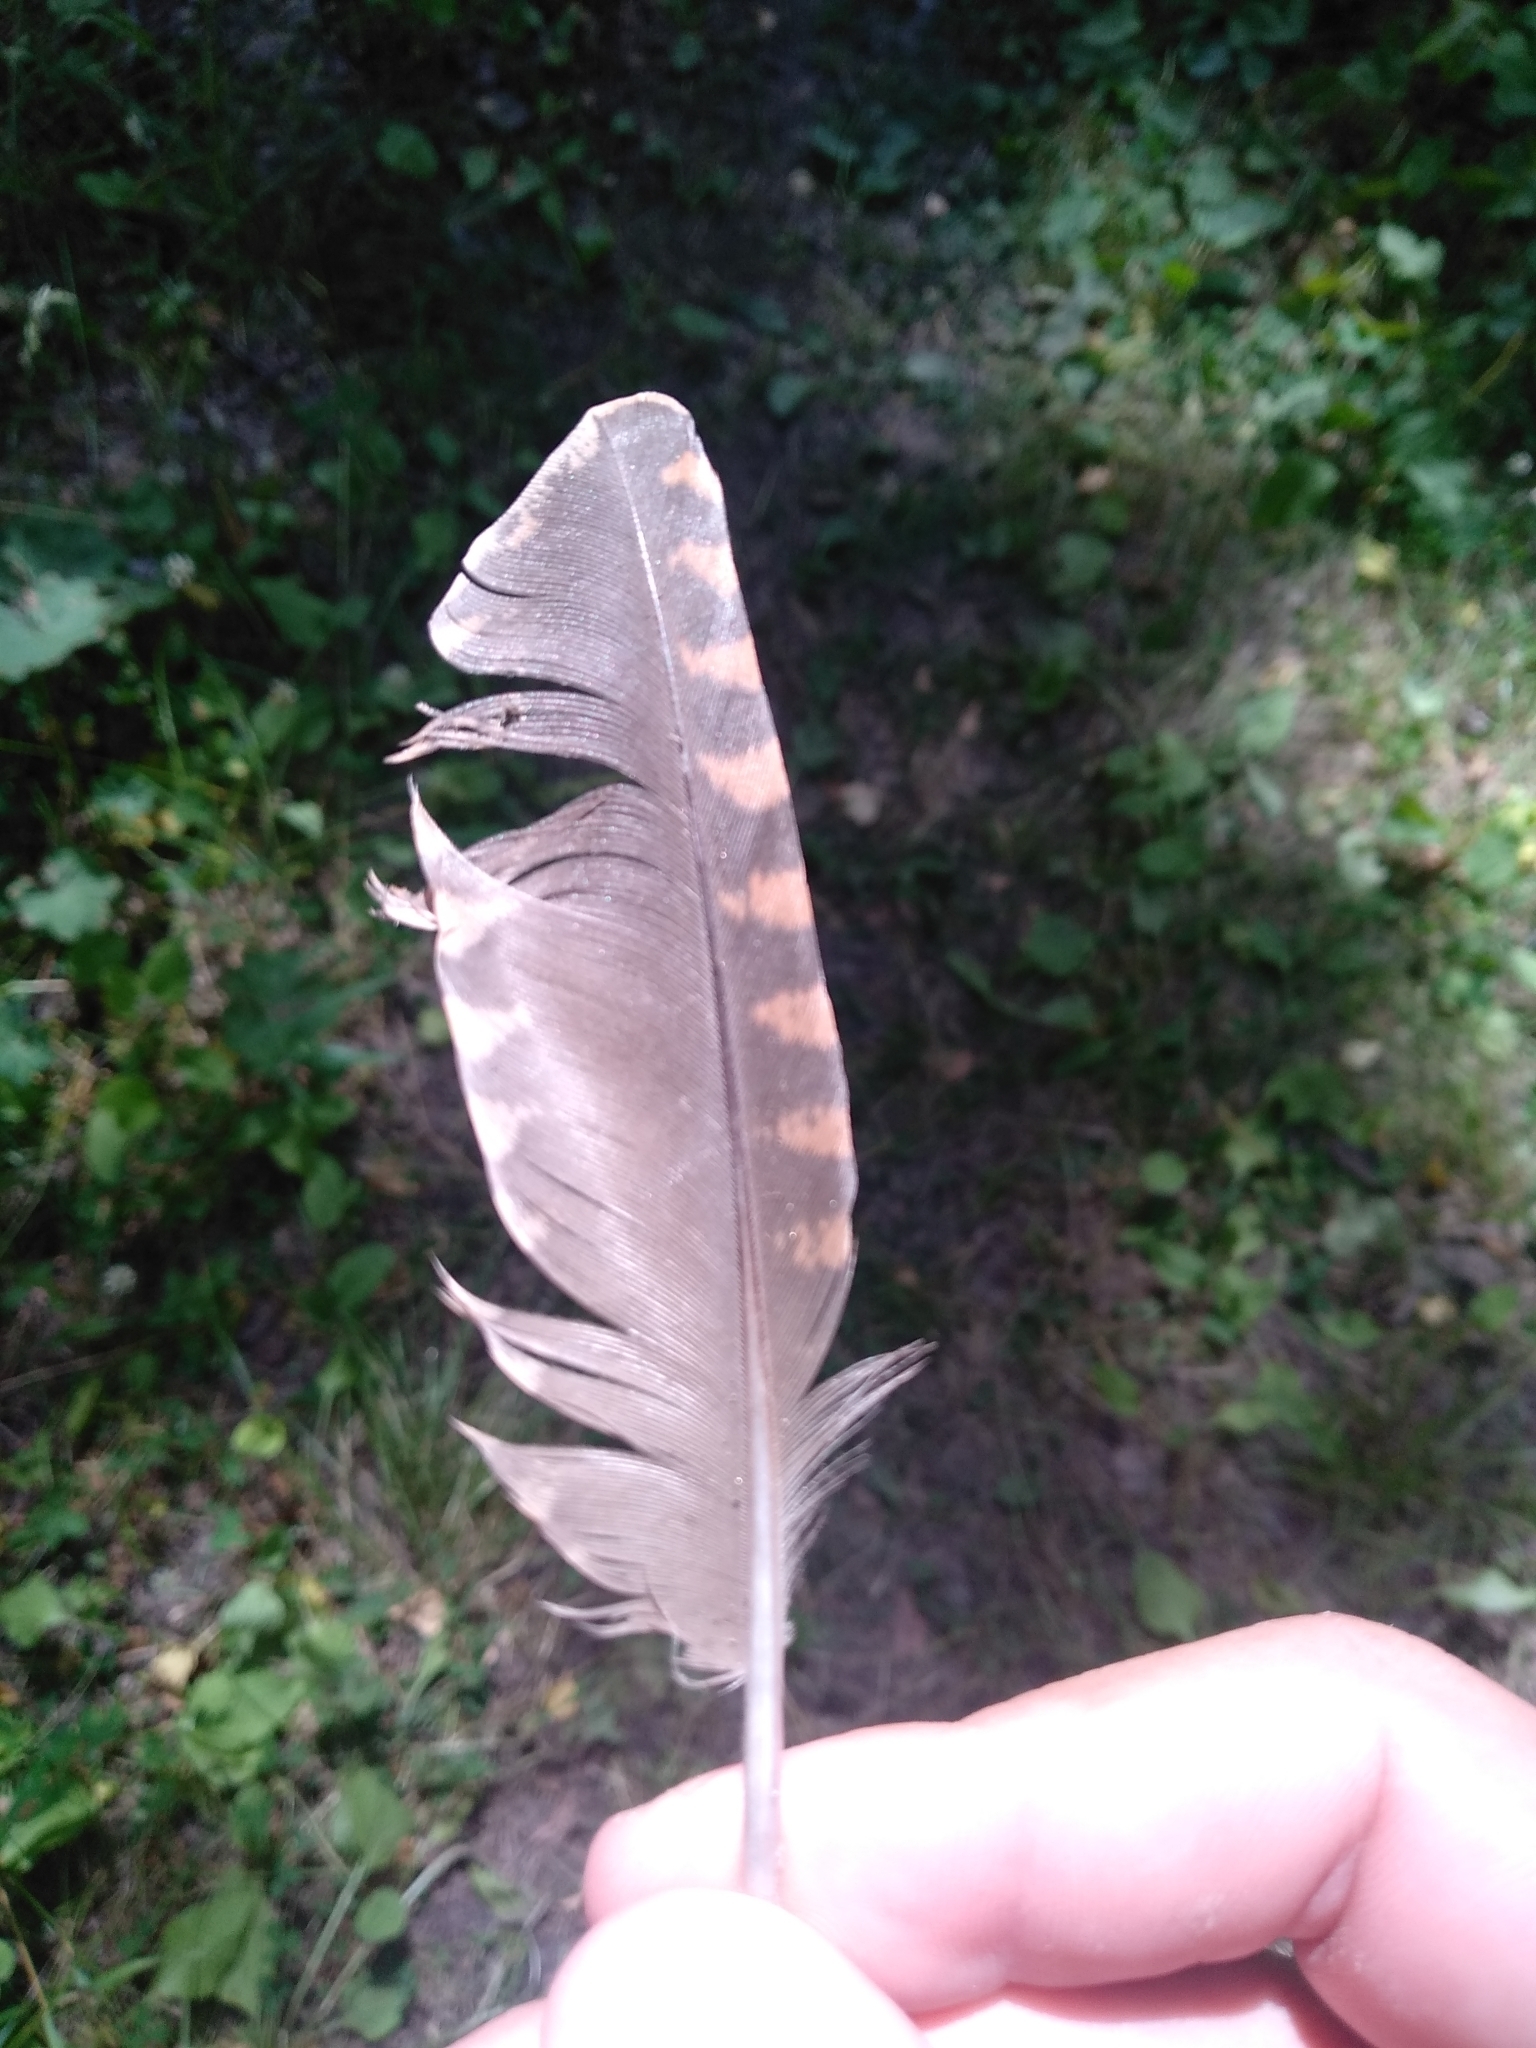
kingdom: Animalia
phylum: Chordata
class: Aves
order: Charadriiformes
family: Scolopacidae
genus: Scolopax
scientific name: Scolopax rusticola
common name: Eurasian woodcock
